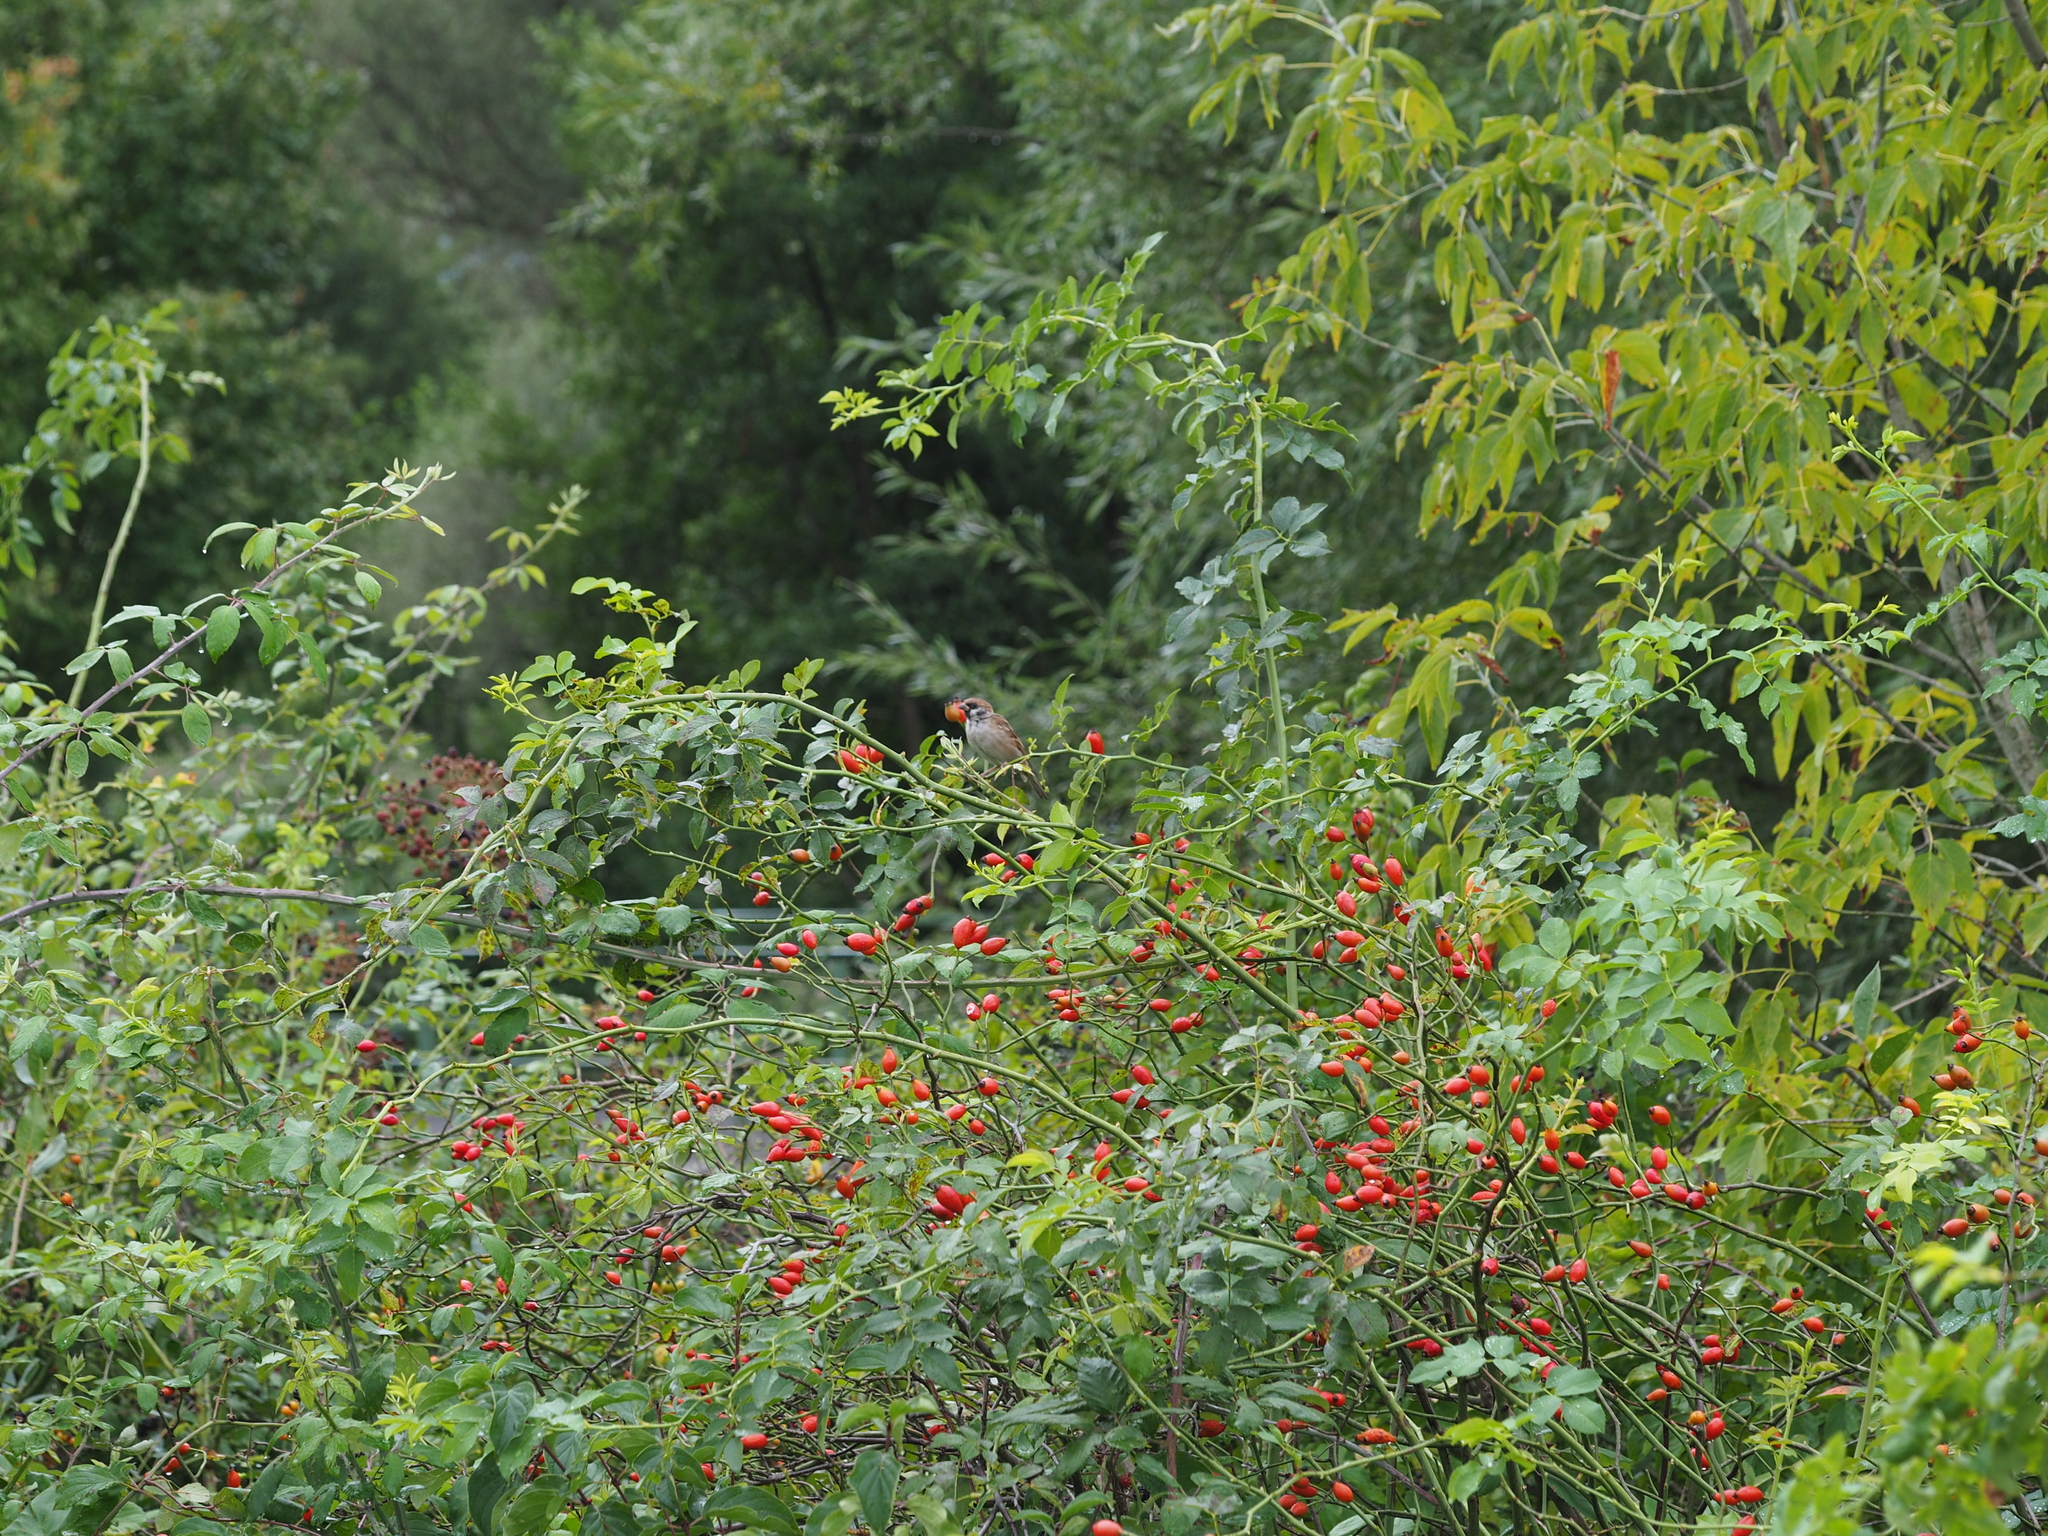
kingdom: Animalia
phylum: Chordata
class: Aves
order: Passeriformes
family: Passeridae
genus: Passer
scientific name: Passer montanus
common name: Eurasian tree sparrow
